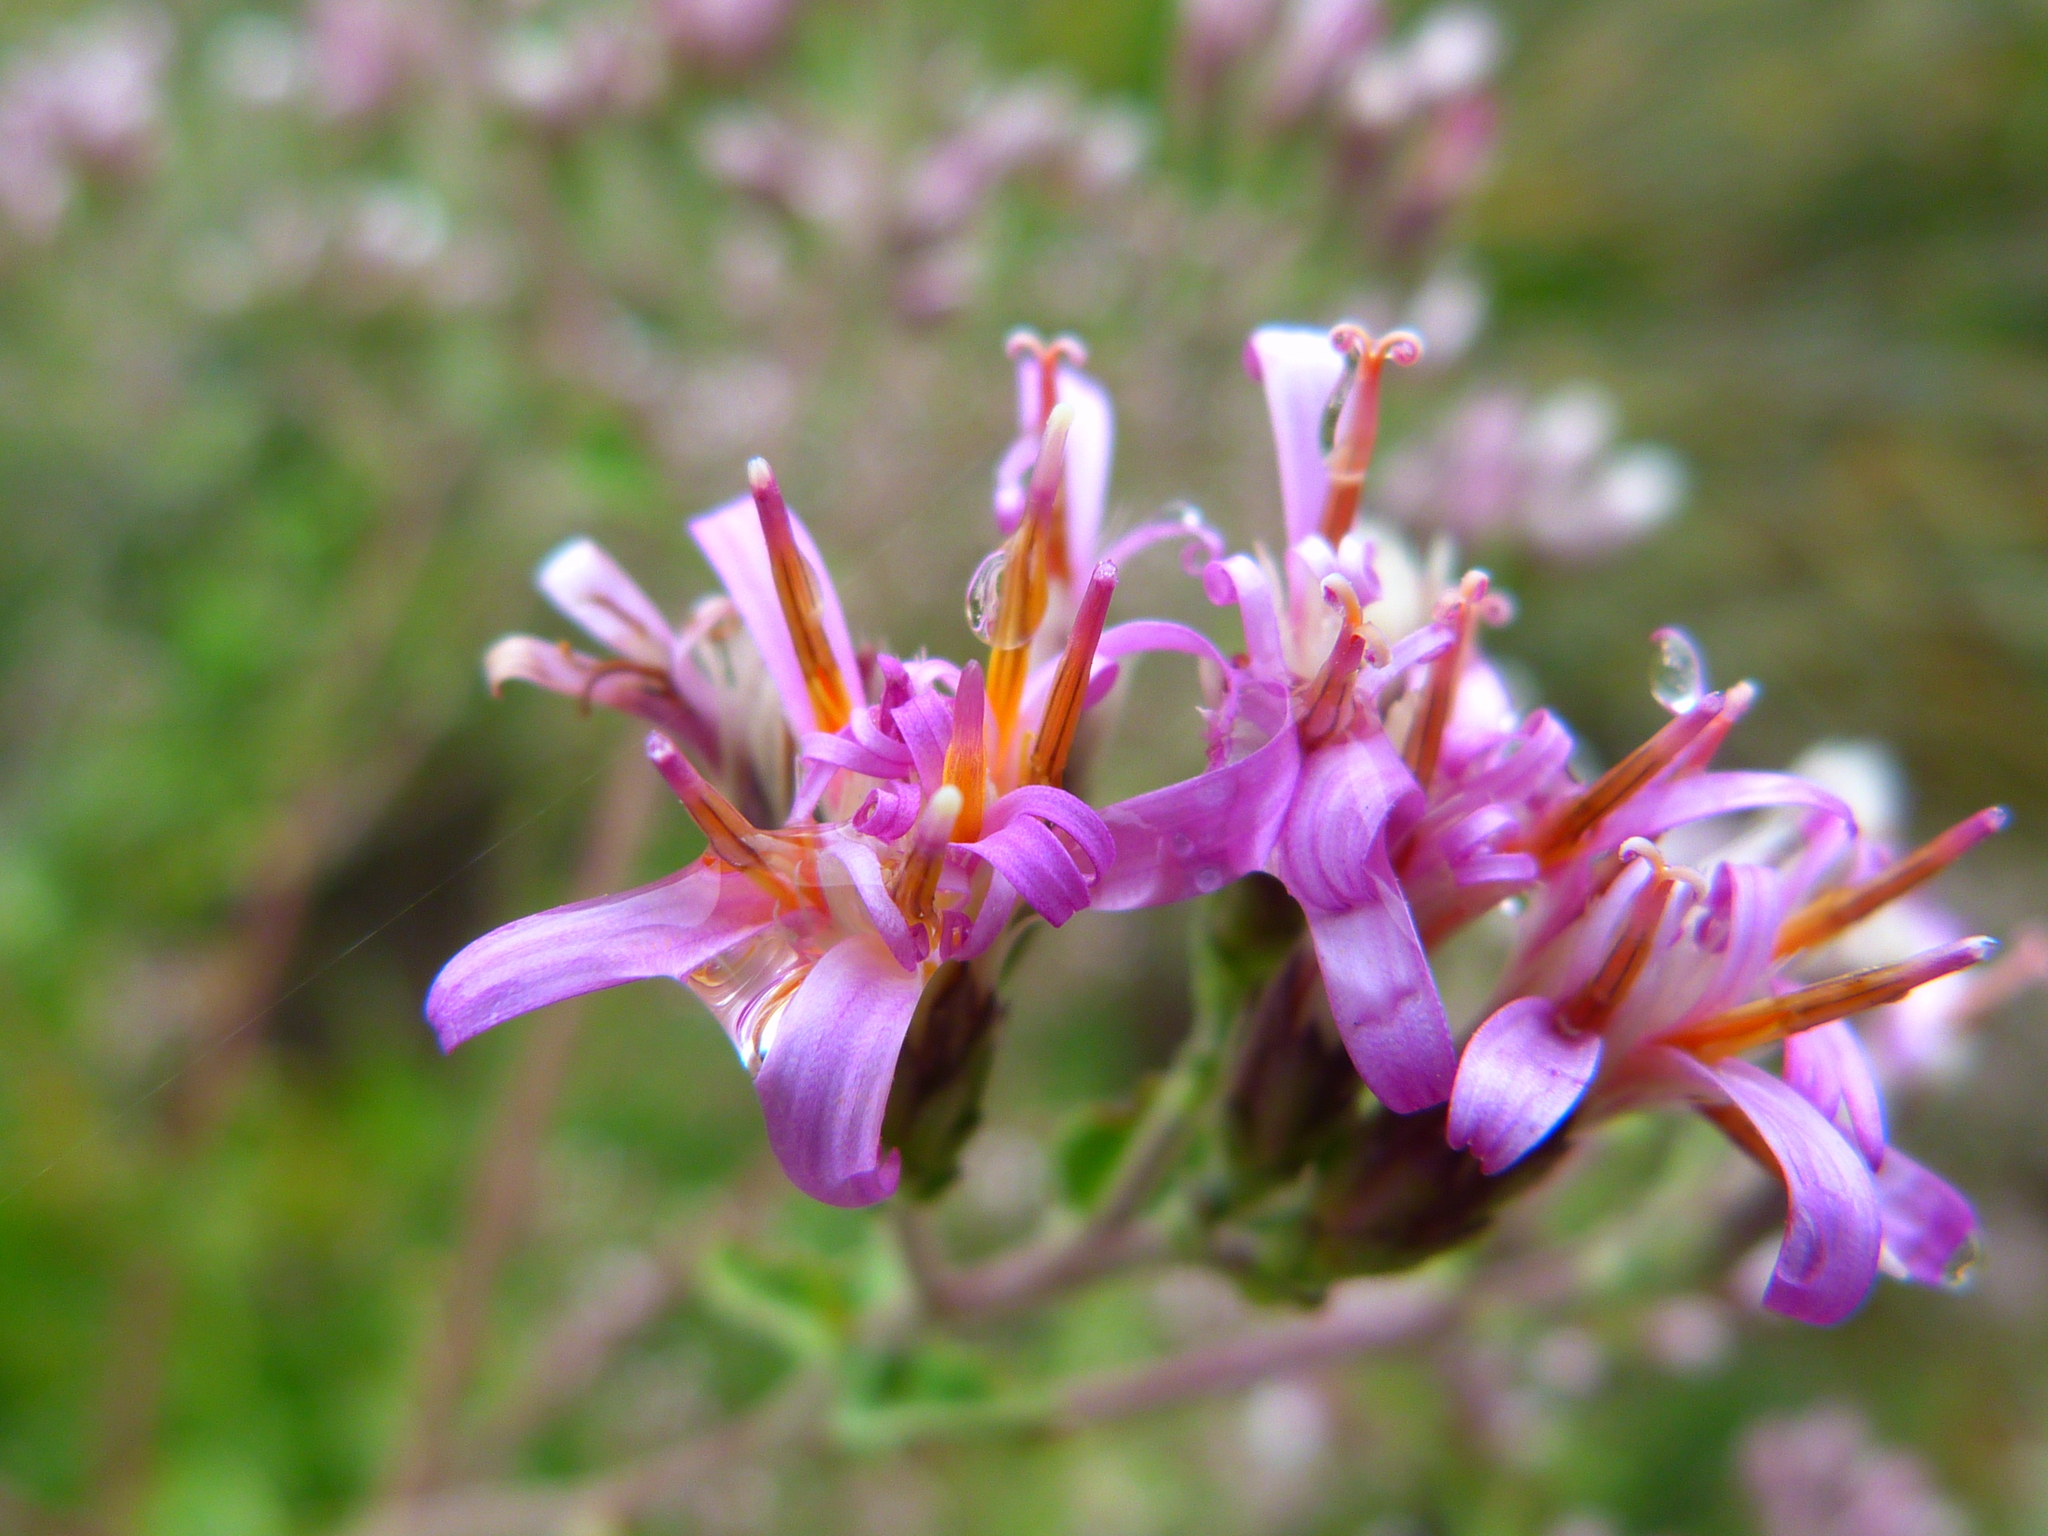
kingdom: Plantae
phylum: Tracheophyta
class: Magnoliopsida
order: Asterales
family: Asteraceae
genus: Acourtia
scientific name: Acourtia microcephala
